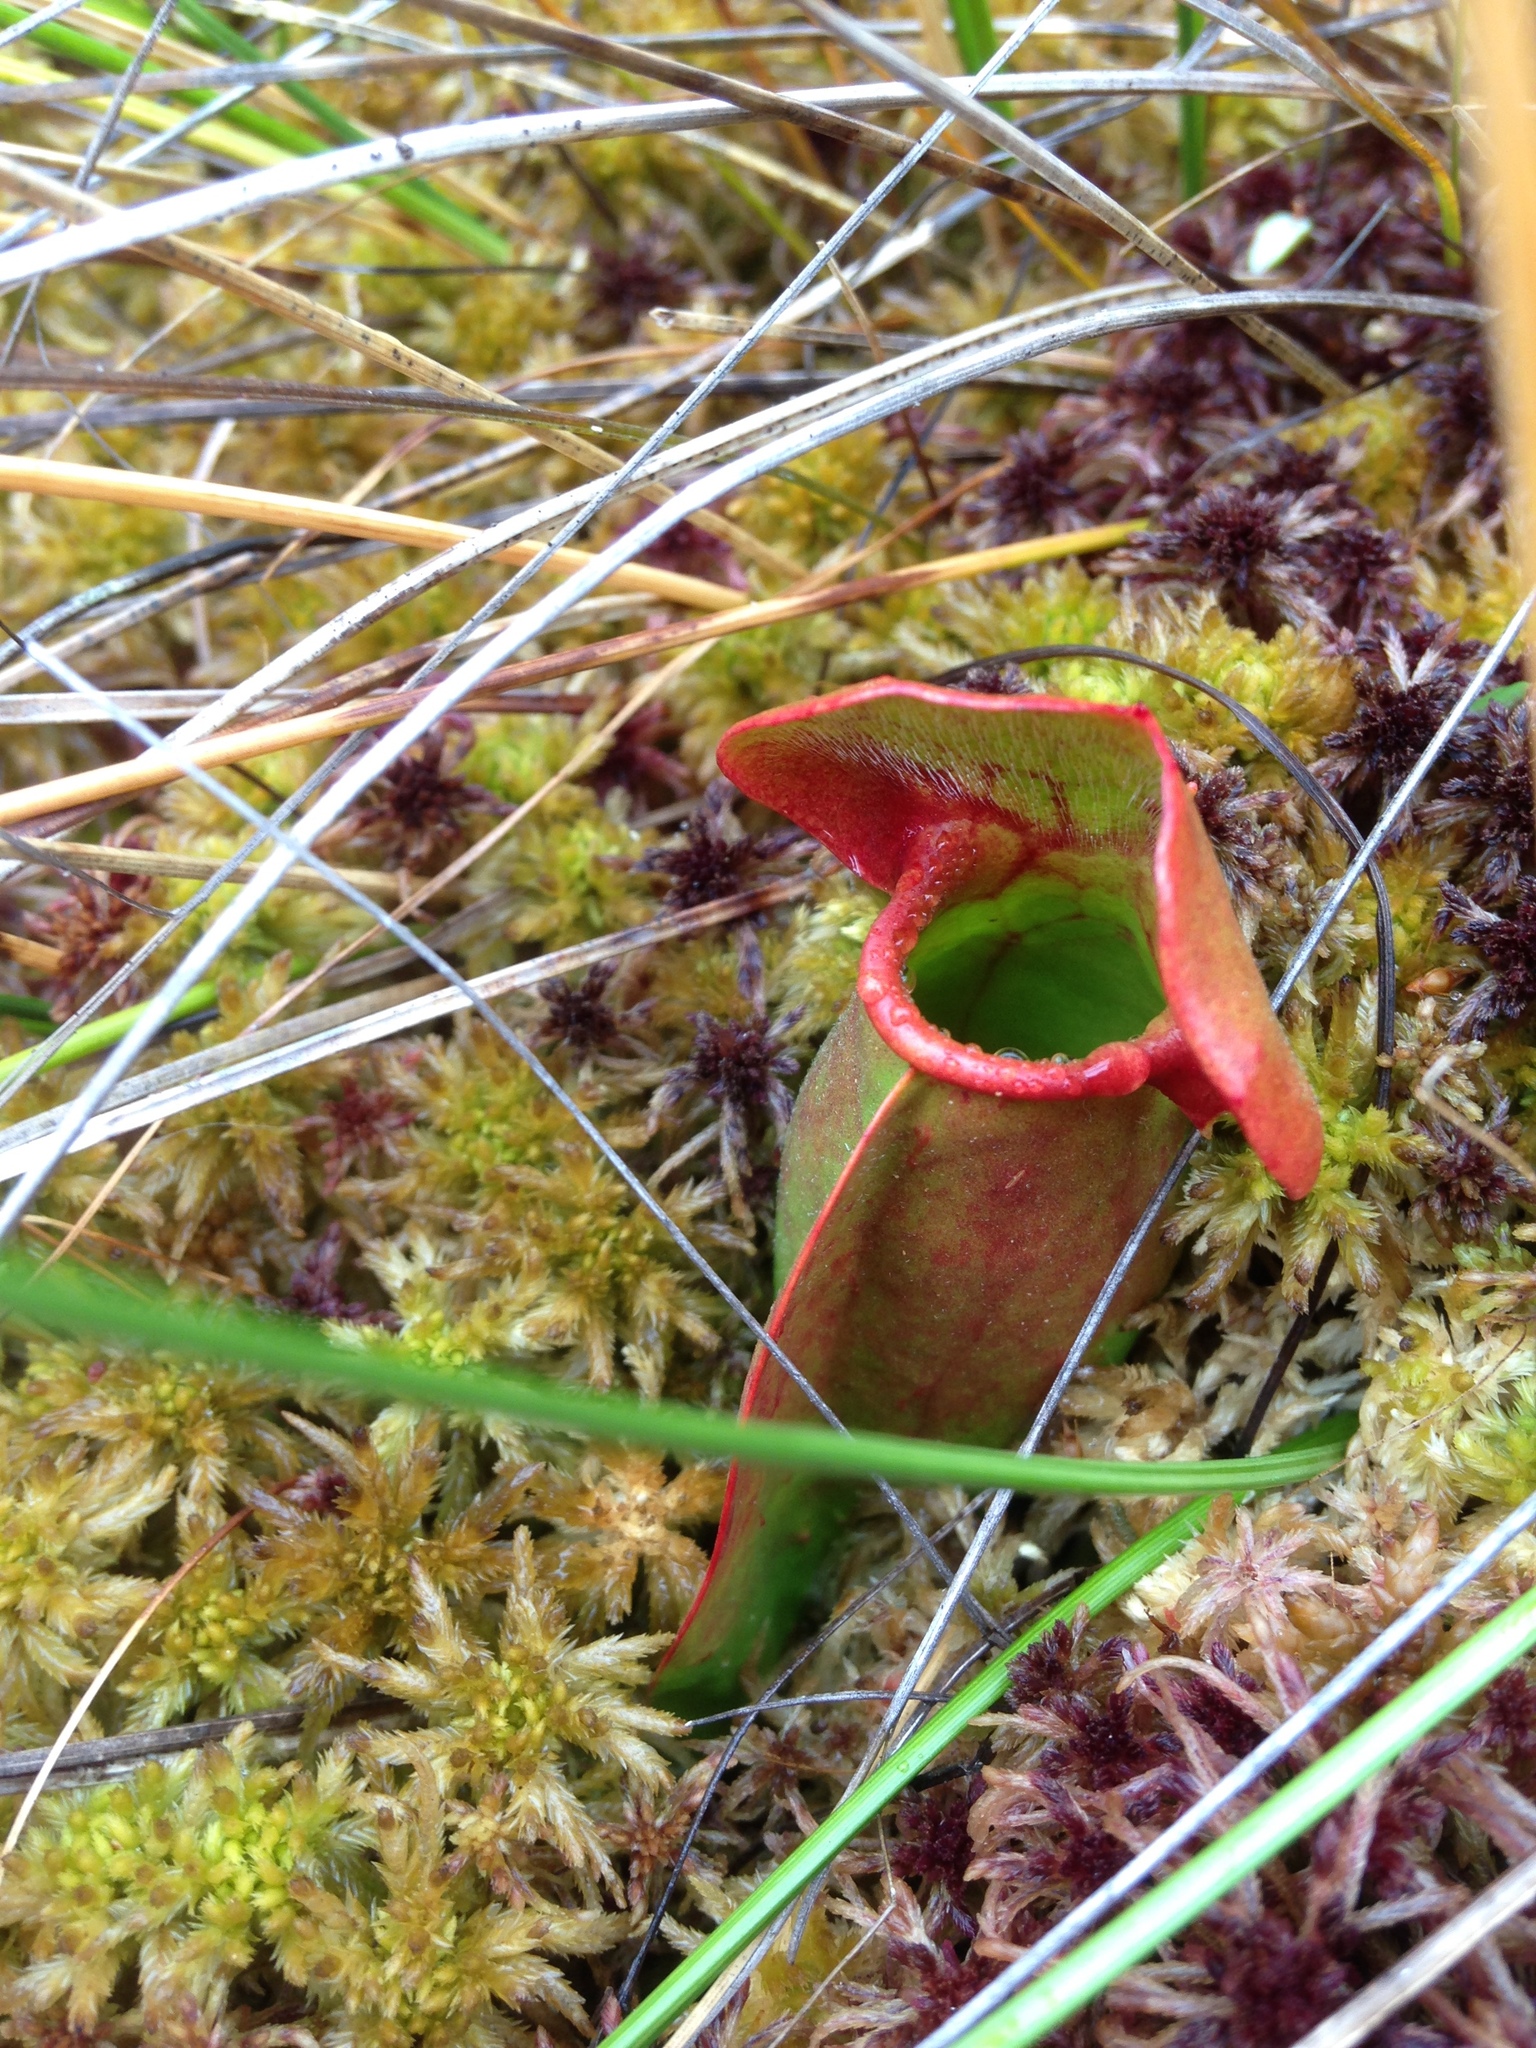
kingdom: Plantae
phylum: Tracheophyta
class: Magnoliopsida
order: Ericales
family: Sarraceniaceae
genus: Sarracenia
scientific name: Sarracenia purpurea
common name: Pitcherplant
